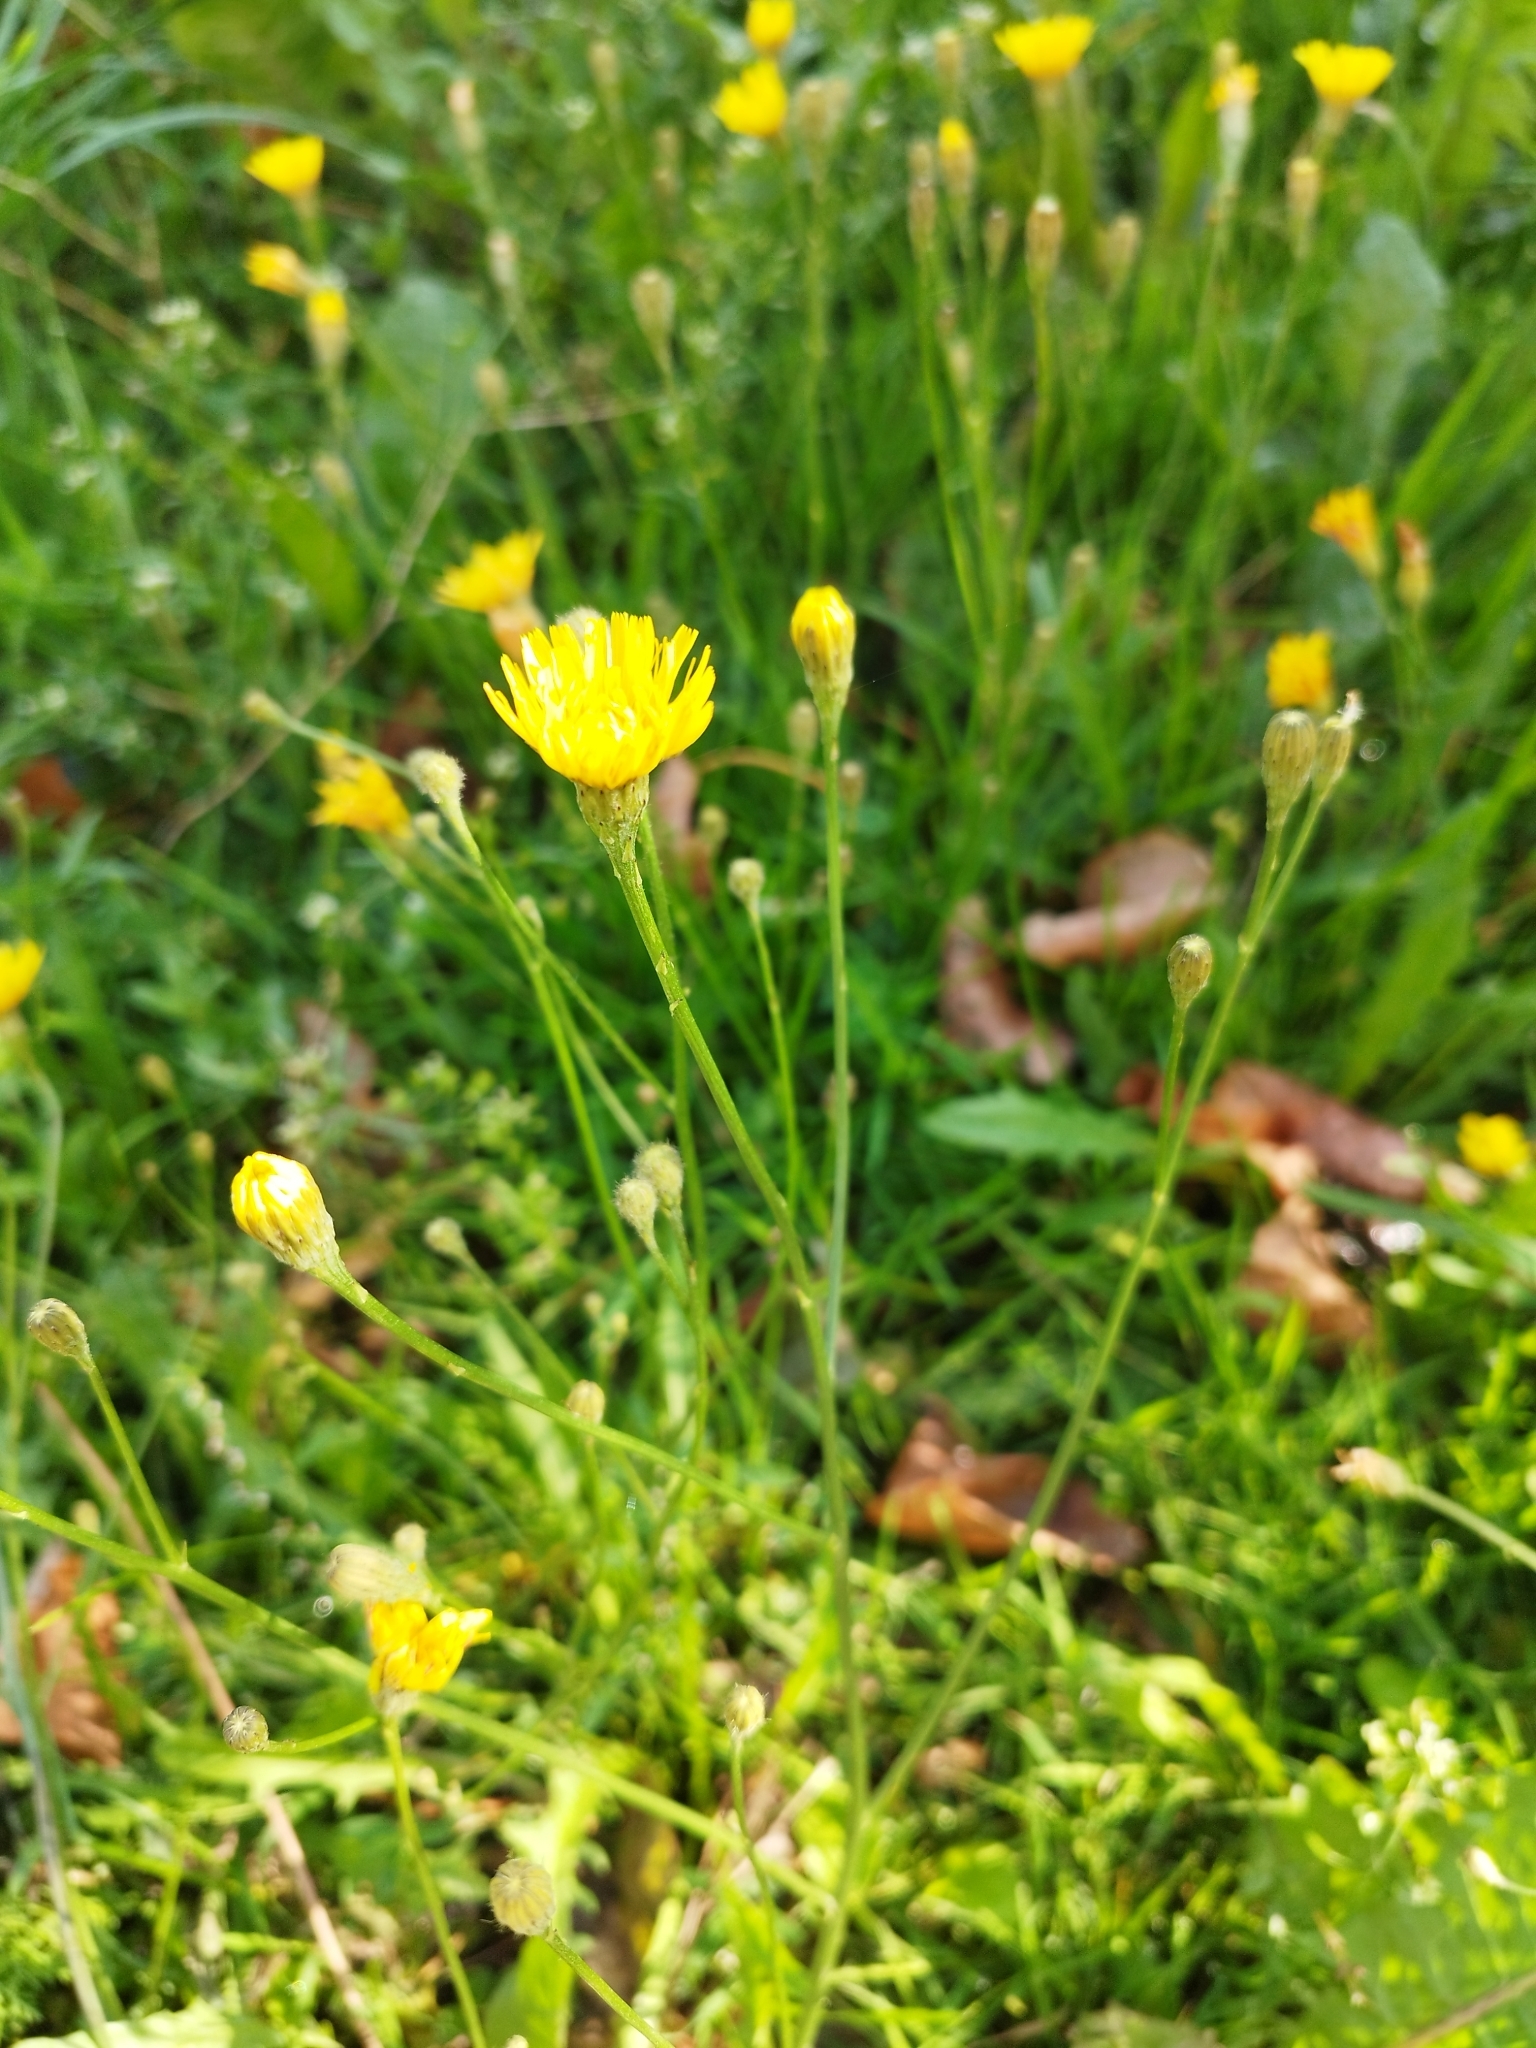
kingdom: Plantae
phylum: Tracheophyta
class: Magnoliopsida
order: Asterales
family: Asteraceae
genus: Scorzoneroides
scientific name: Scorzoneroides autumnalis
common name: Autumn hawkbit
